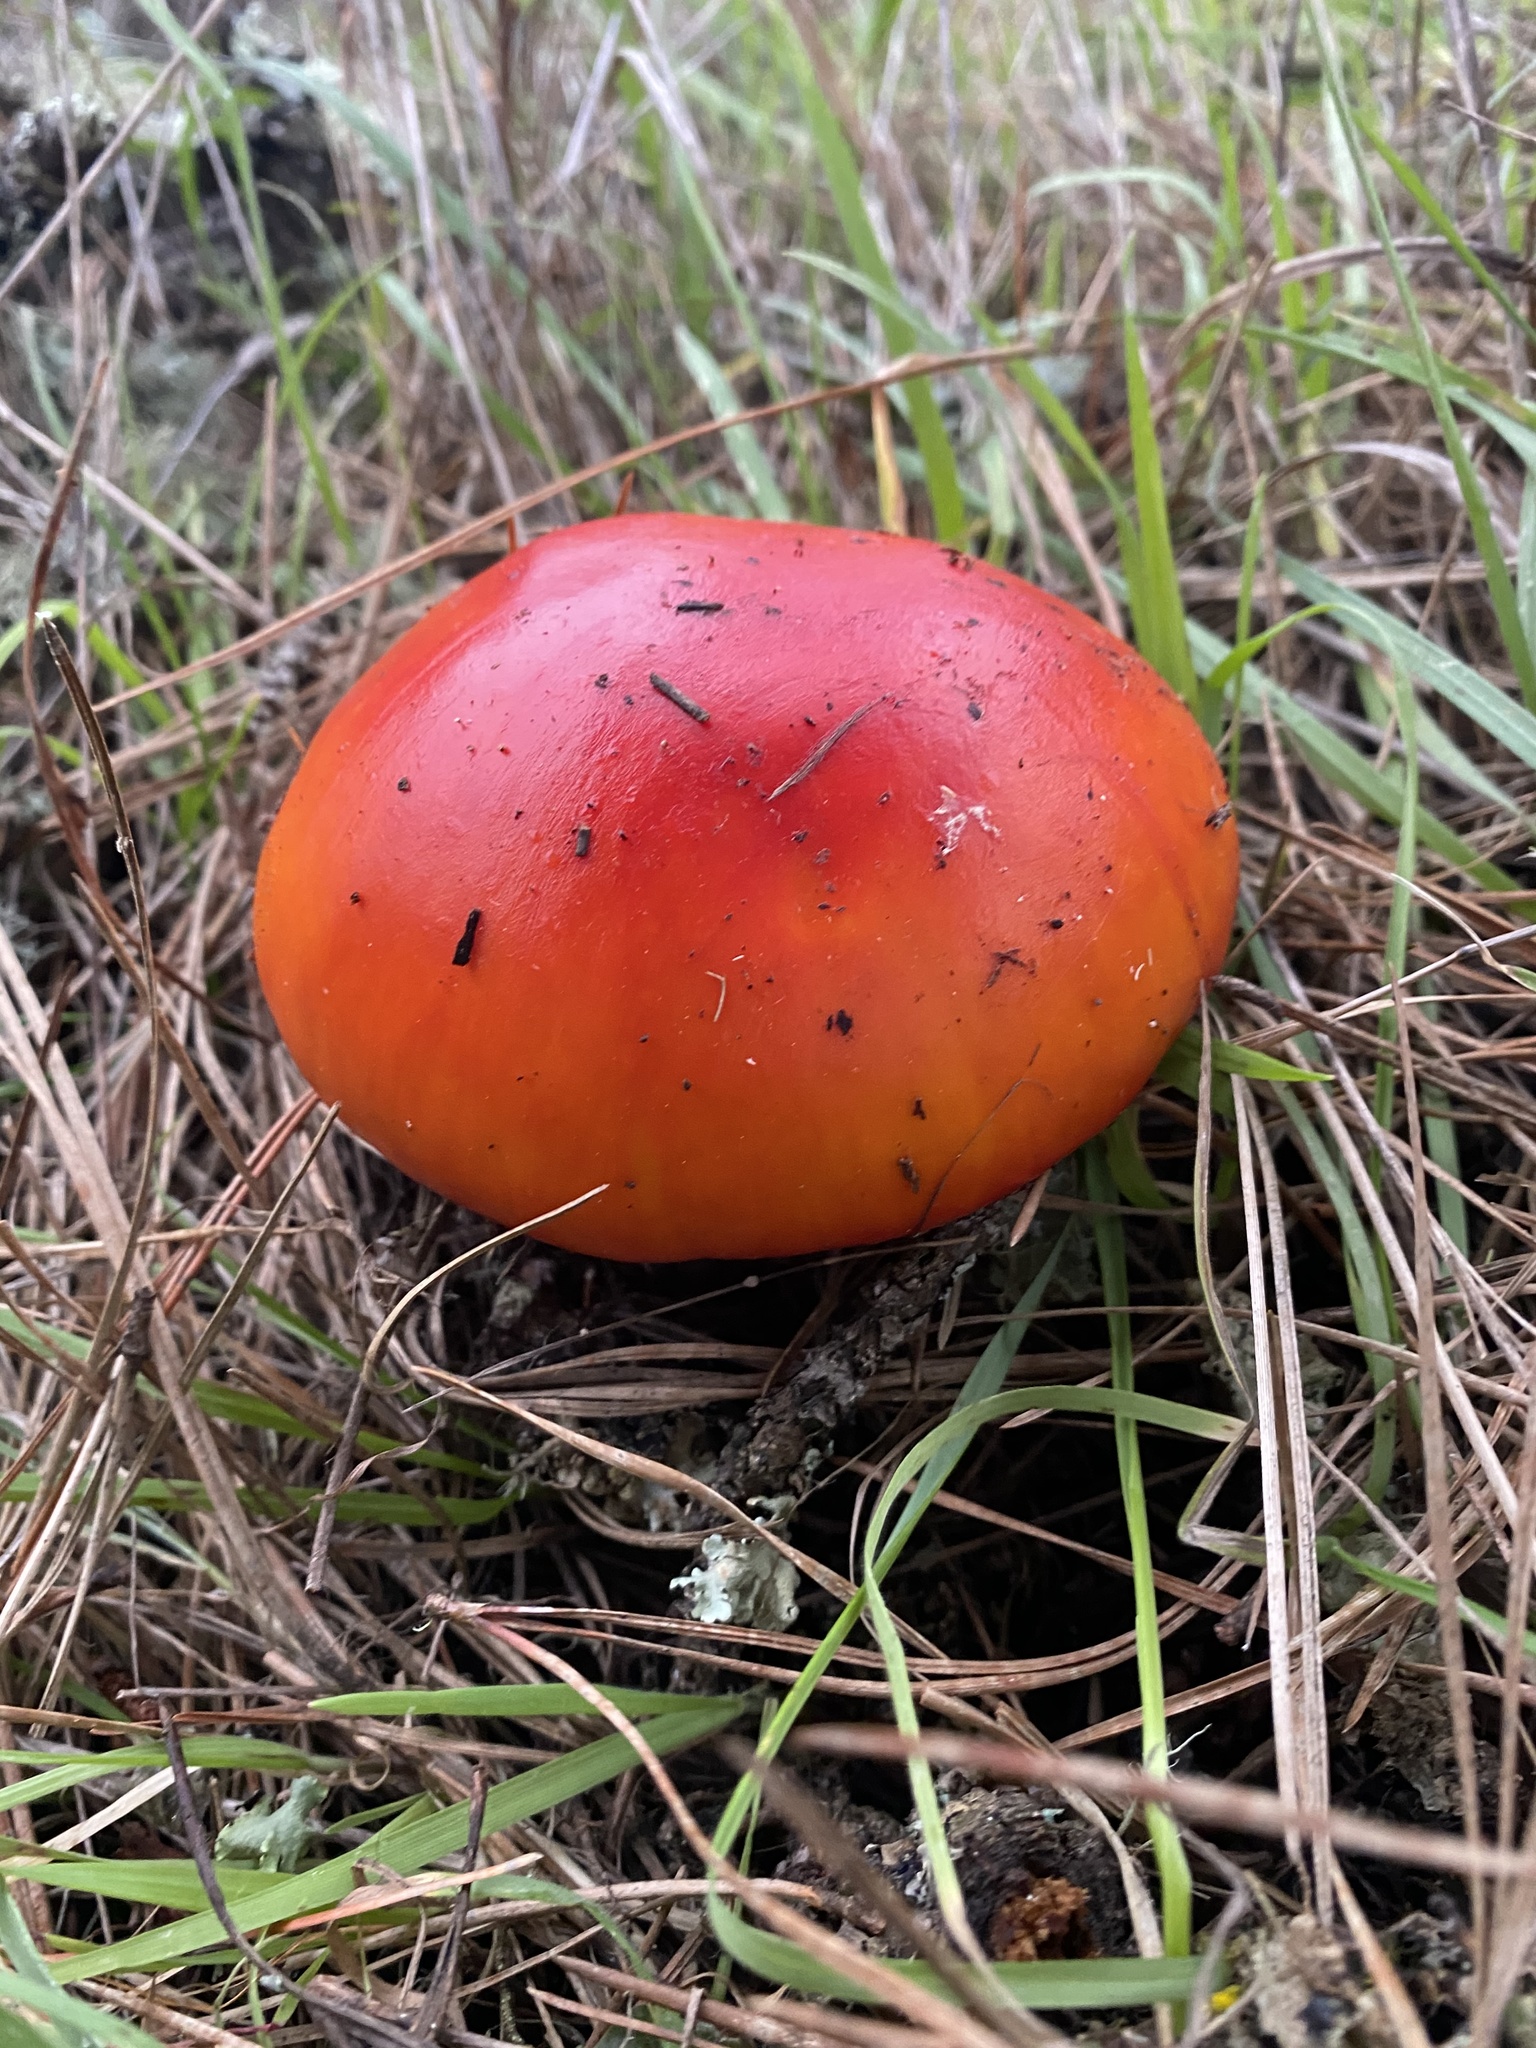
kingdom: Fungi
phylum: Basidiomycota
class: Agaricomycetes
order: Agaricales
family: Amanitaceae
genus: Amanita
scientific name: Amanita muscaria
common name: Fly agaric
